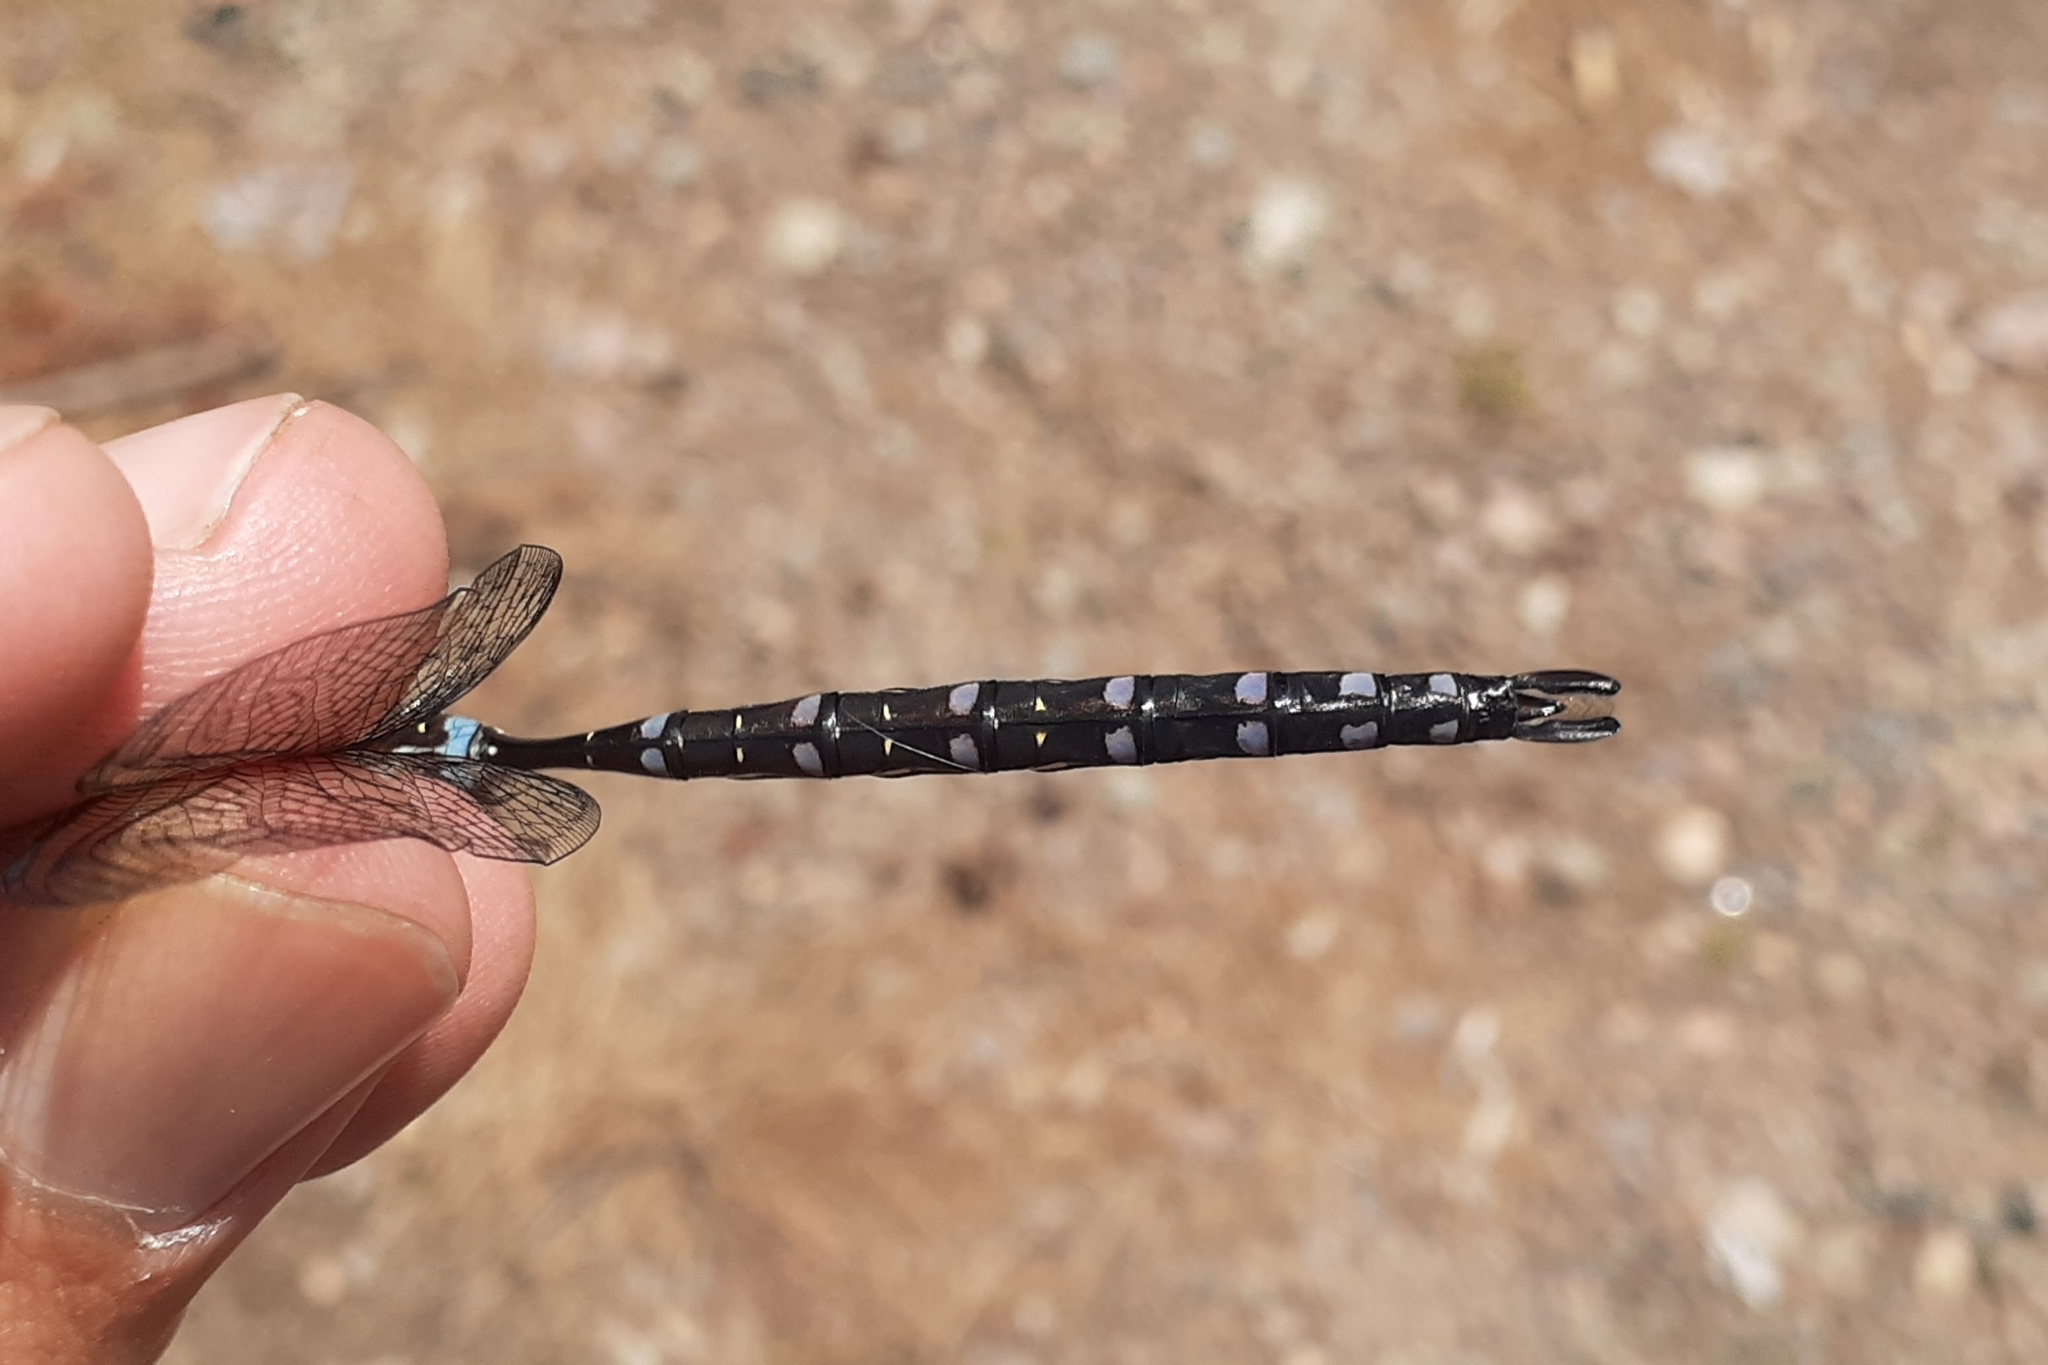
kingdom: Animalia
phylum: Arthropoda
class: Insecta
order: Odonata
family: Aeshnidae
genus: Aeshna
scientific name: Aeshna tuberculifera
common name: Aeschne à tubercules
